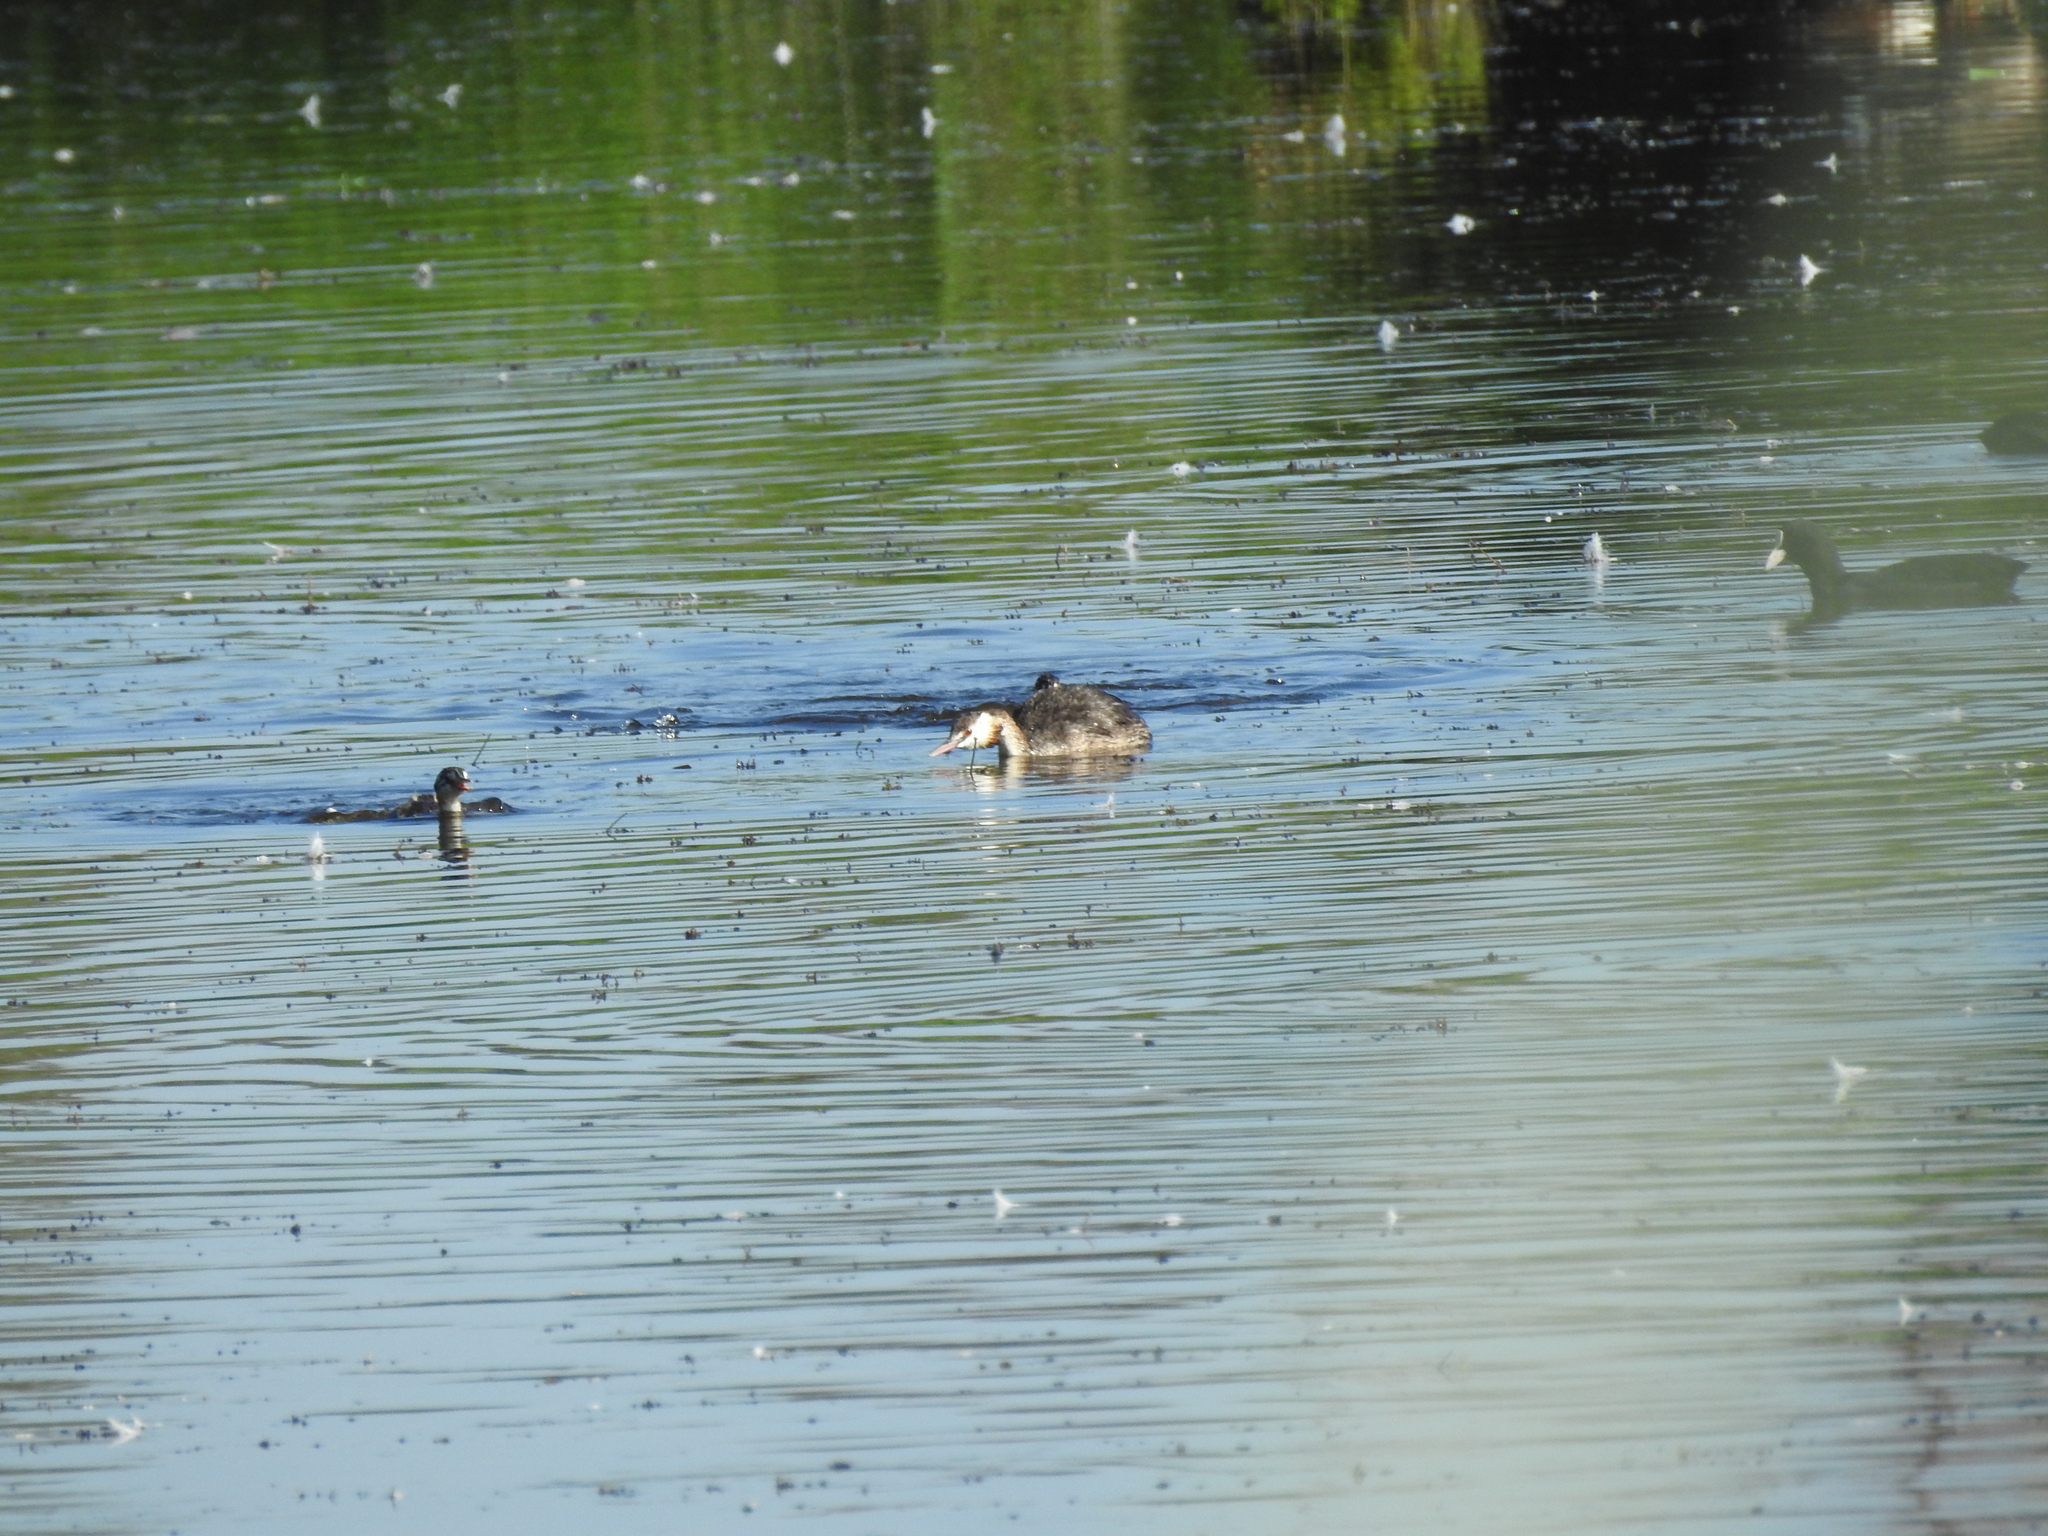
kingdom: Animalia
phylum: Chordata
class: Aves
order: Podicipediformes
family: Podicipedidae
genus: Podiceps
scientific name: Podiceps cristatus
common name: Great crested grebe
